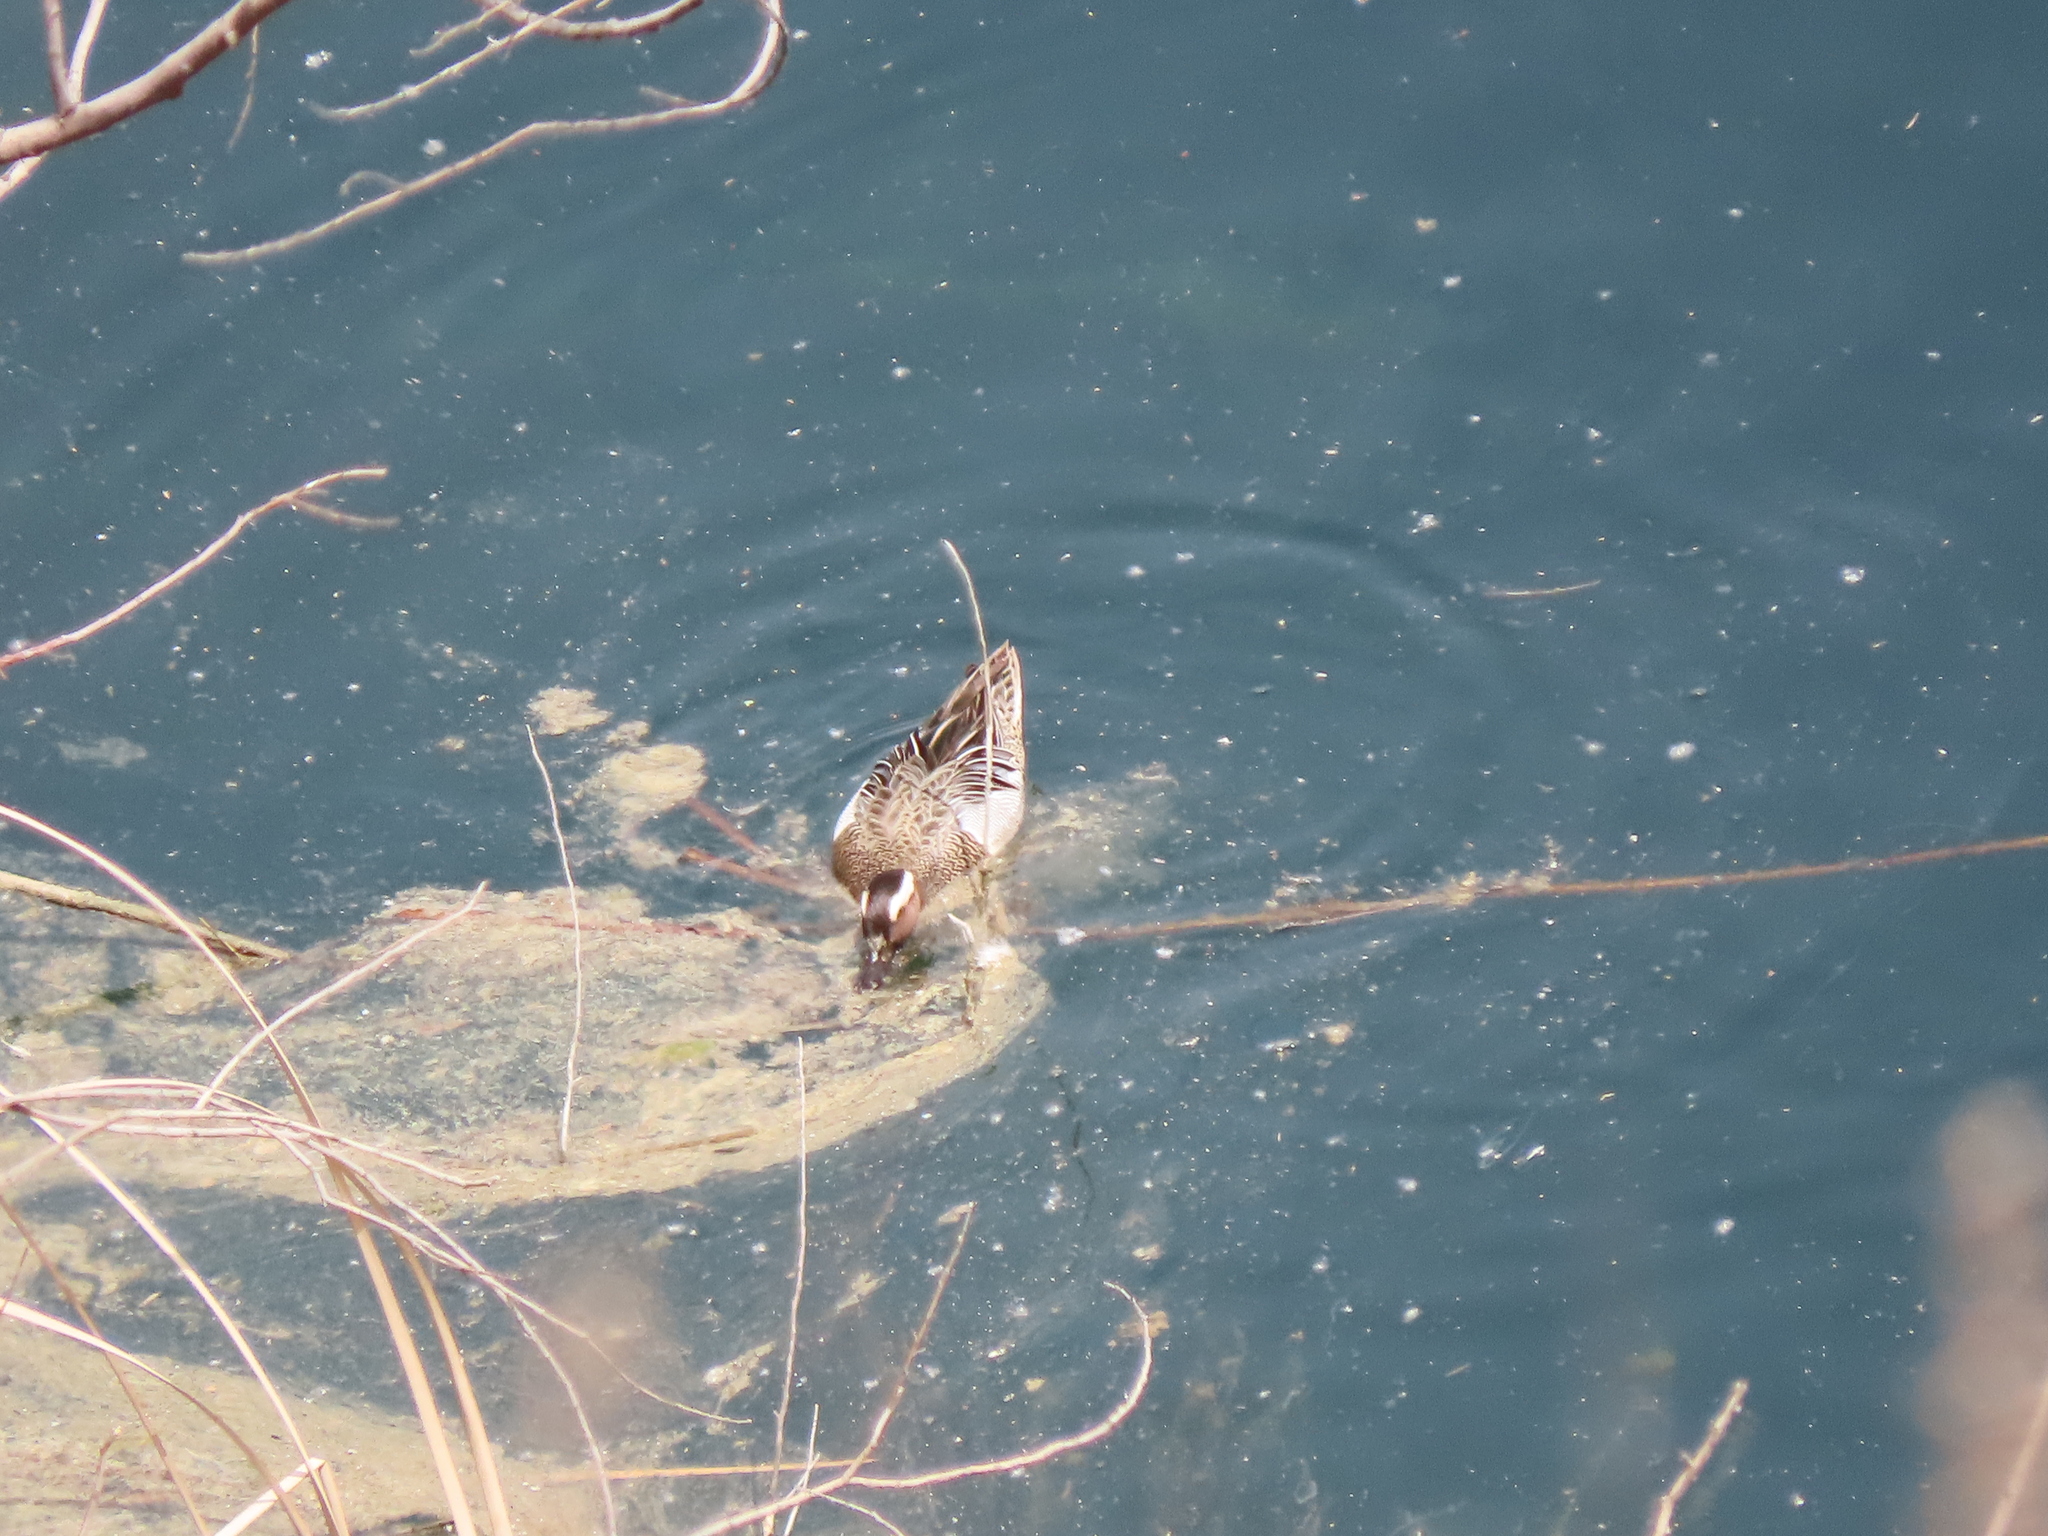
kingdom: Animalia
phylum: Chordata
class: Aves
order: Anseriformes
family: Anatidae
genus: Spatula
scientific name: Spatula querquedula
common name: Garganey
